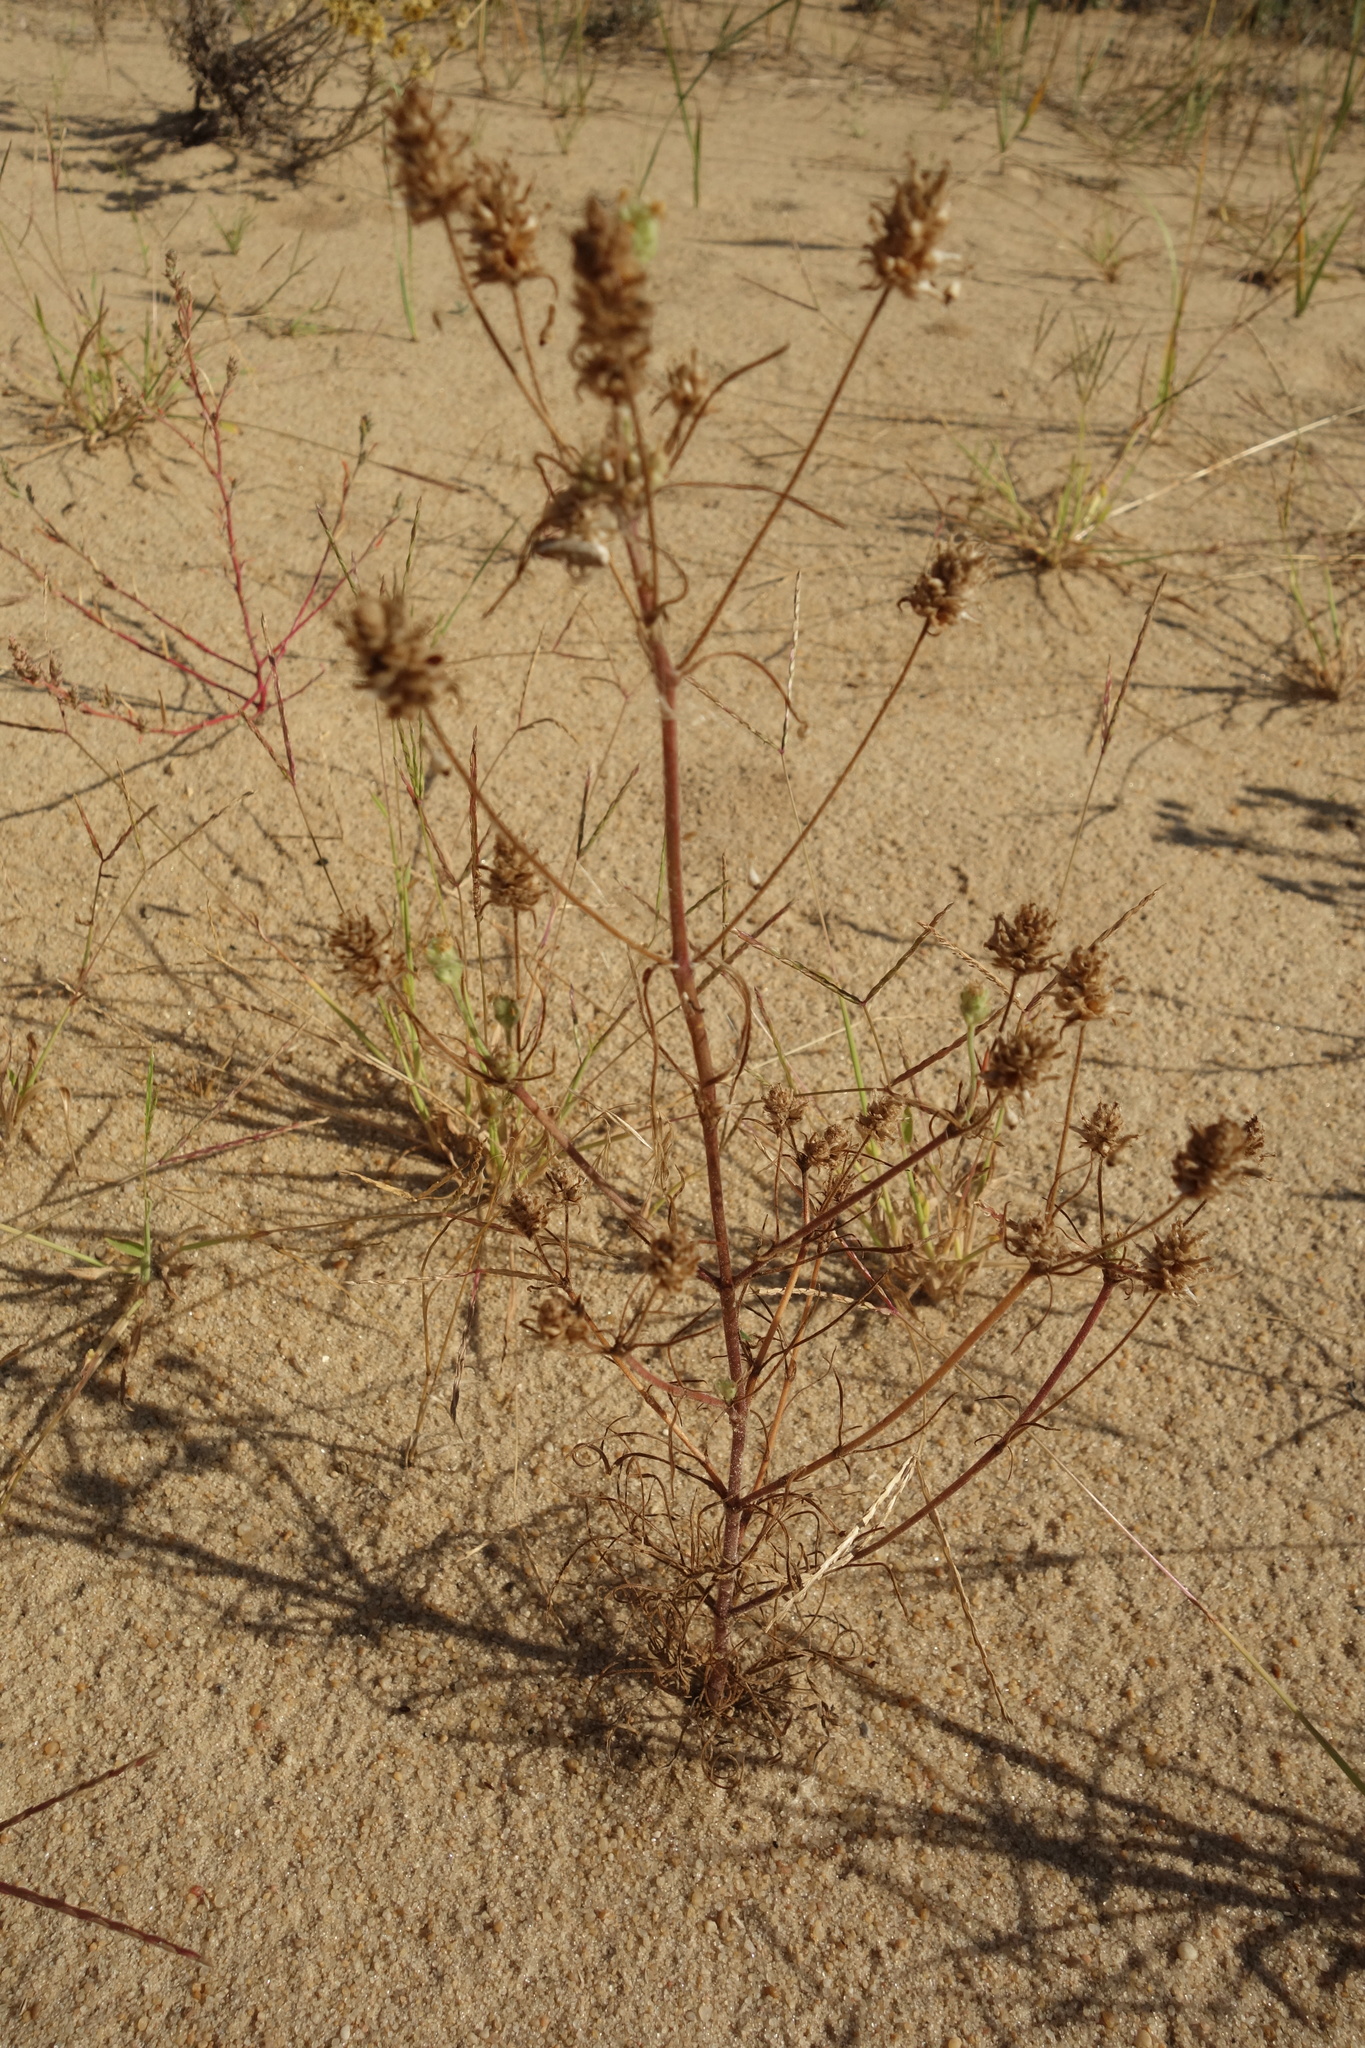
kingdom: Plantae
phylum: Tracheophyta
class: Magnoliopsida
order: Lamiales
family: Plantaginaceae
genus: Plantago
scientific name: Plantago arenaria
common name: Branched plantain
